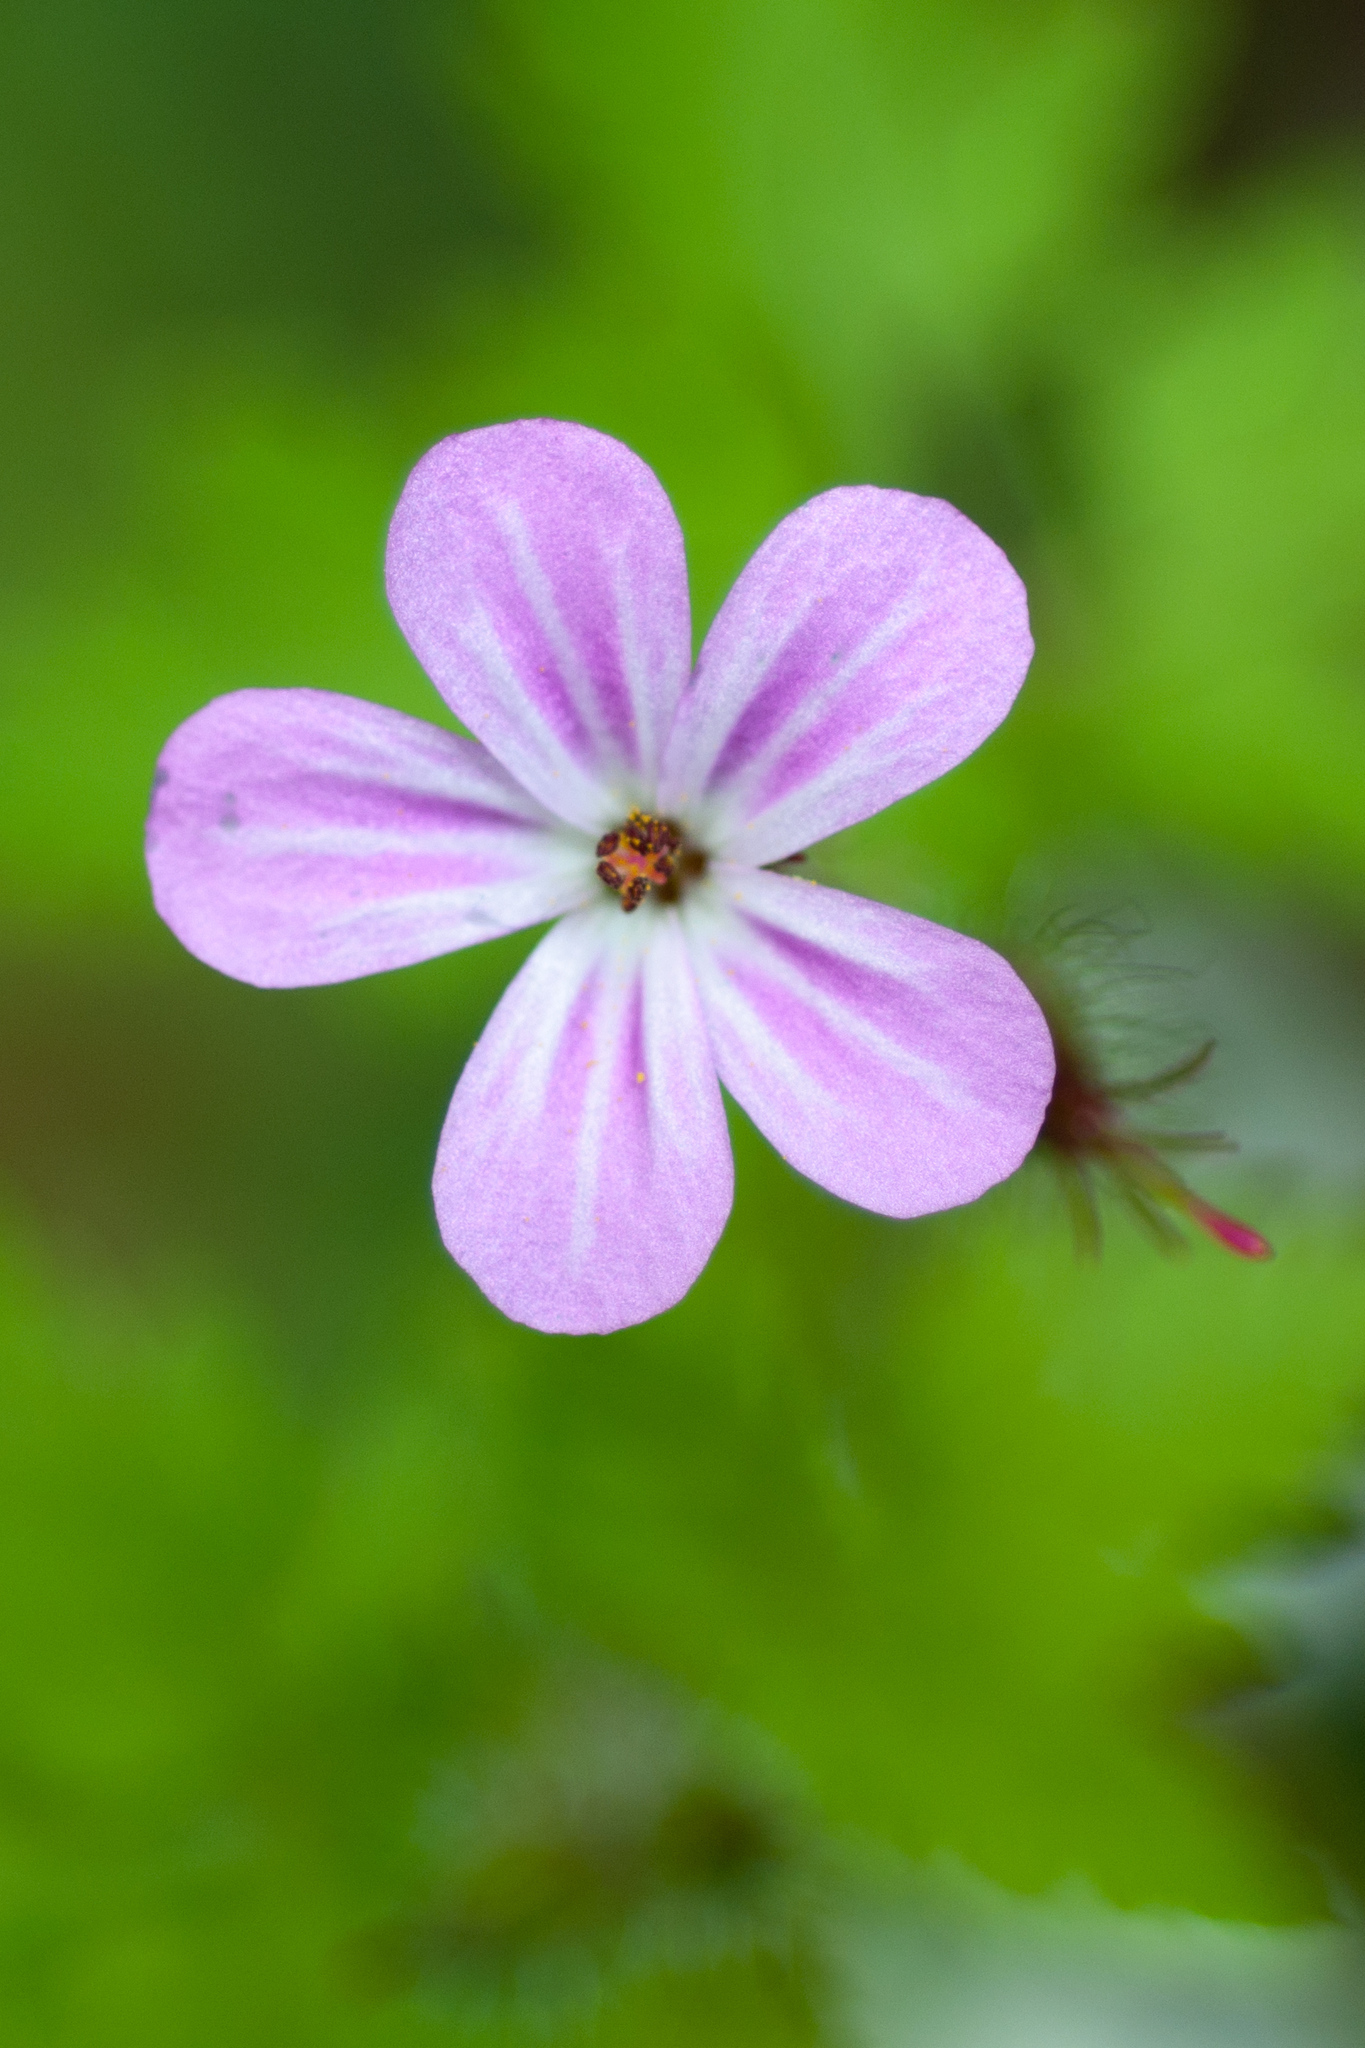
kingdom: Plantae
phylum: Tracheophyta
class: Magnoliopsida
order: Geraniales
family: Geraniaceae
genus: Geranium
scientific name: Geranium robertianum
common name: Herb-robert
